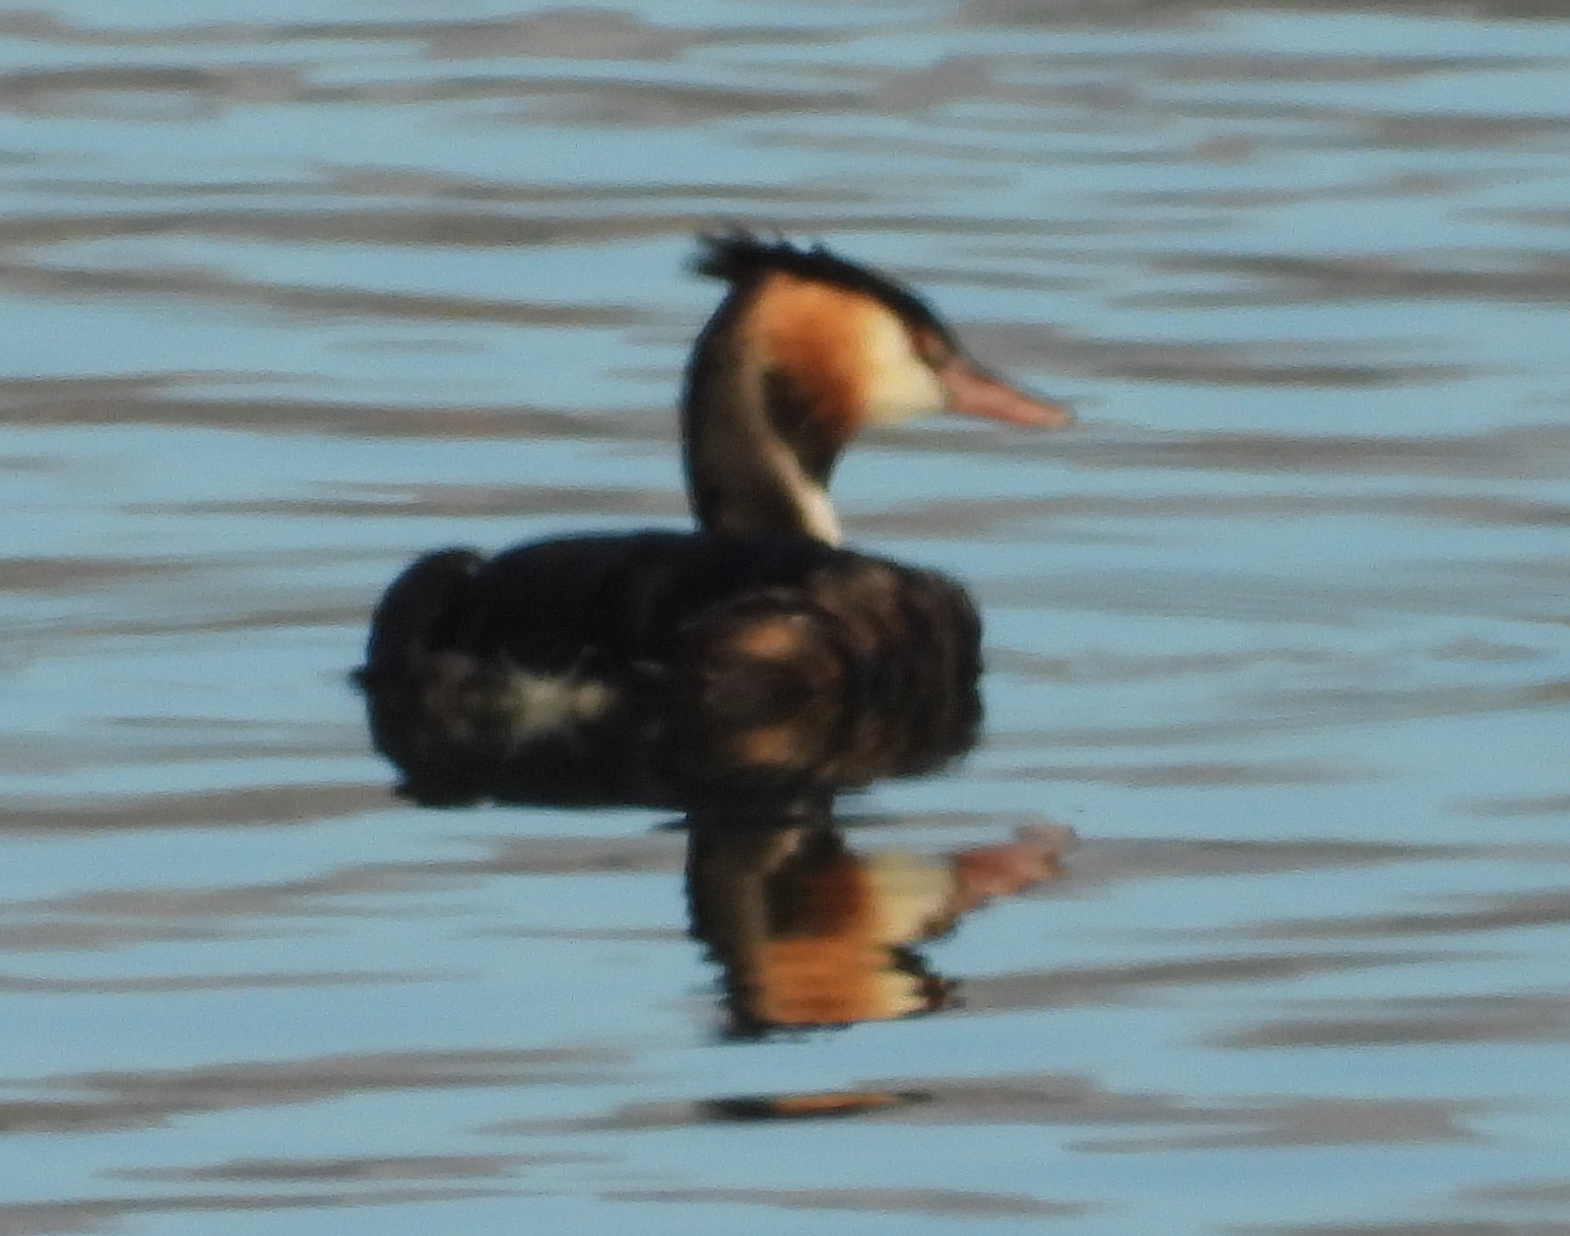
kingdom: Animalia
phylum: Chordata
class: Aves
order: Podicipediformes
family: Podicipedidae
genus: Podiceps
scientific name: Podiceps cristatus
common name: Great crested grebe
